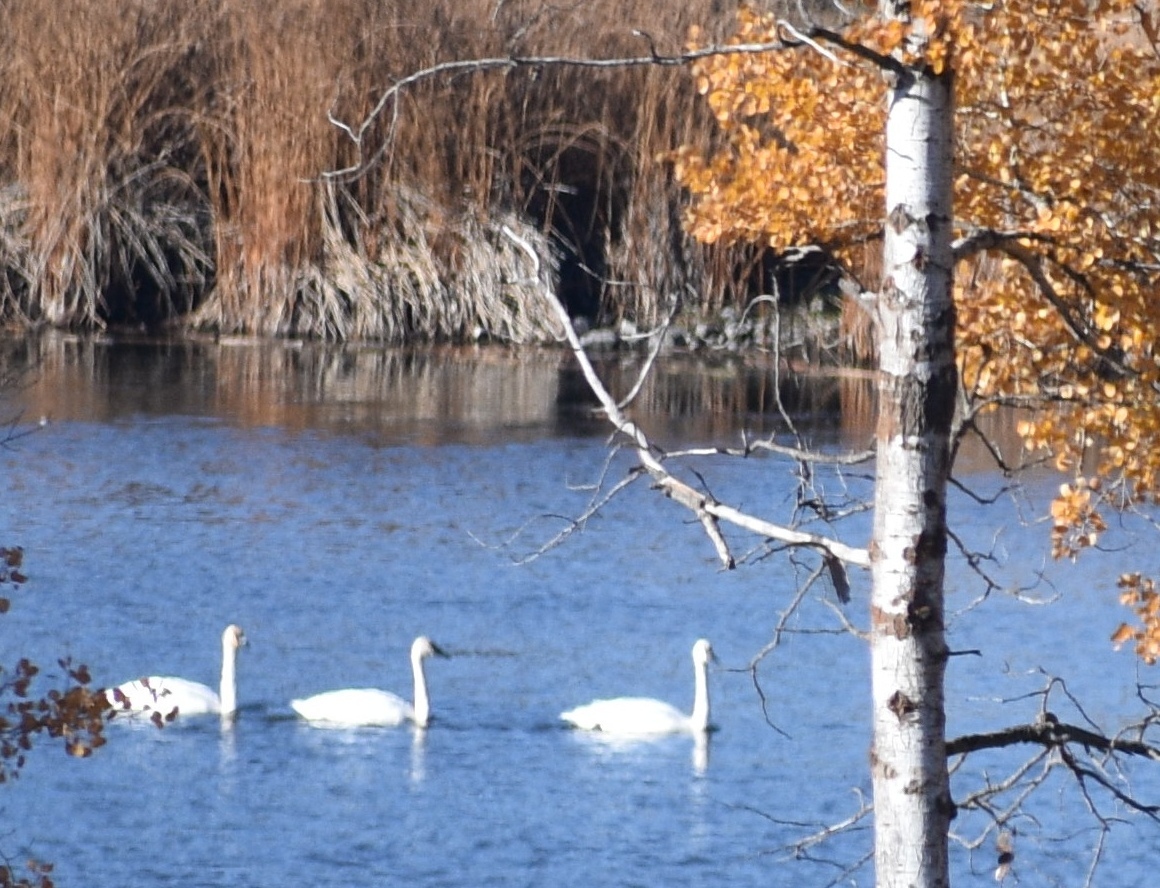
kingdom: Animalia
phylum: Chordata
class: Aves
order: Anseriformes
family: Anatidae
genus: Cygnus
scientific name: Cygnus buccinator
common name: Trumpeter swan
